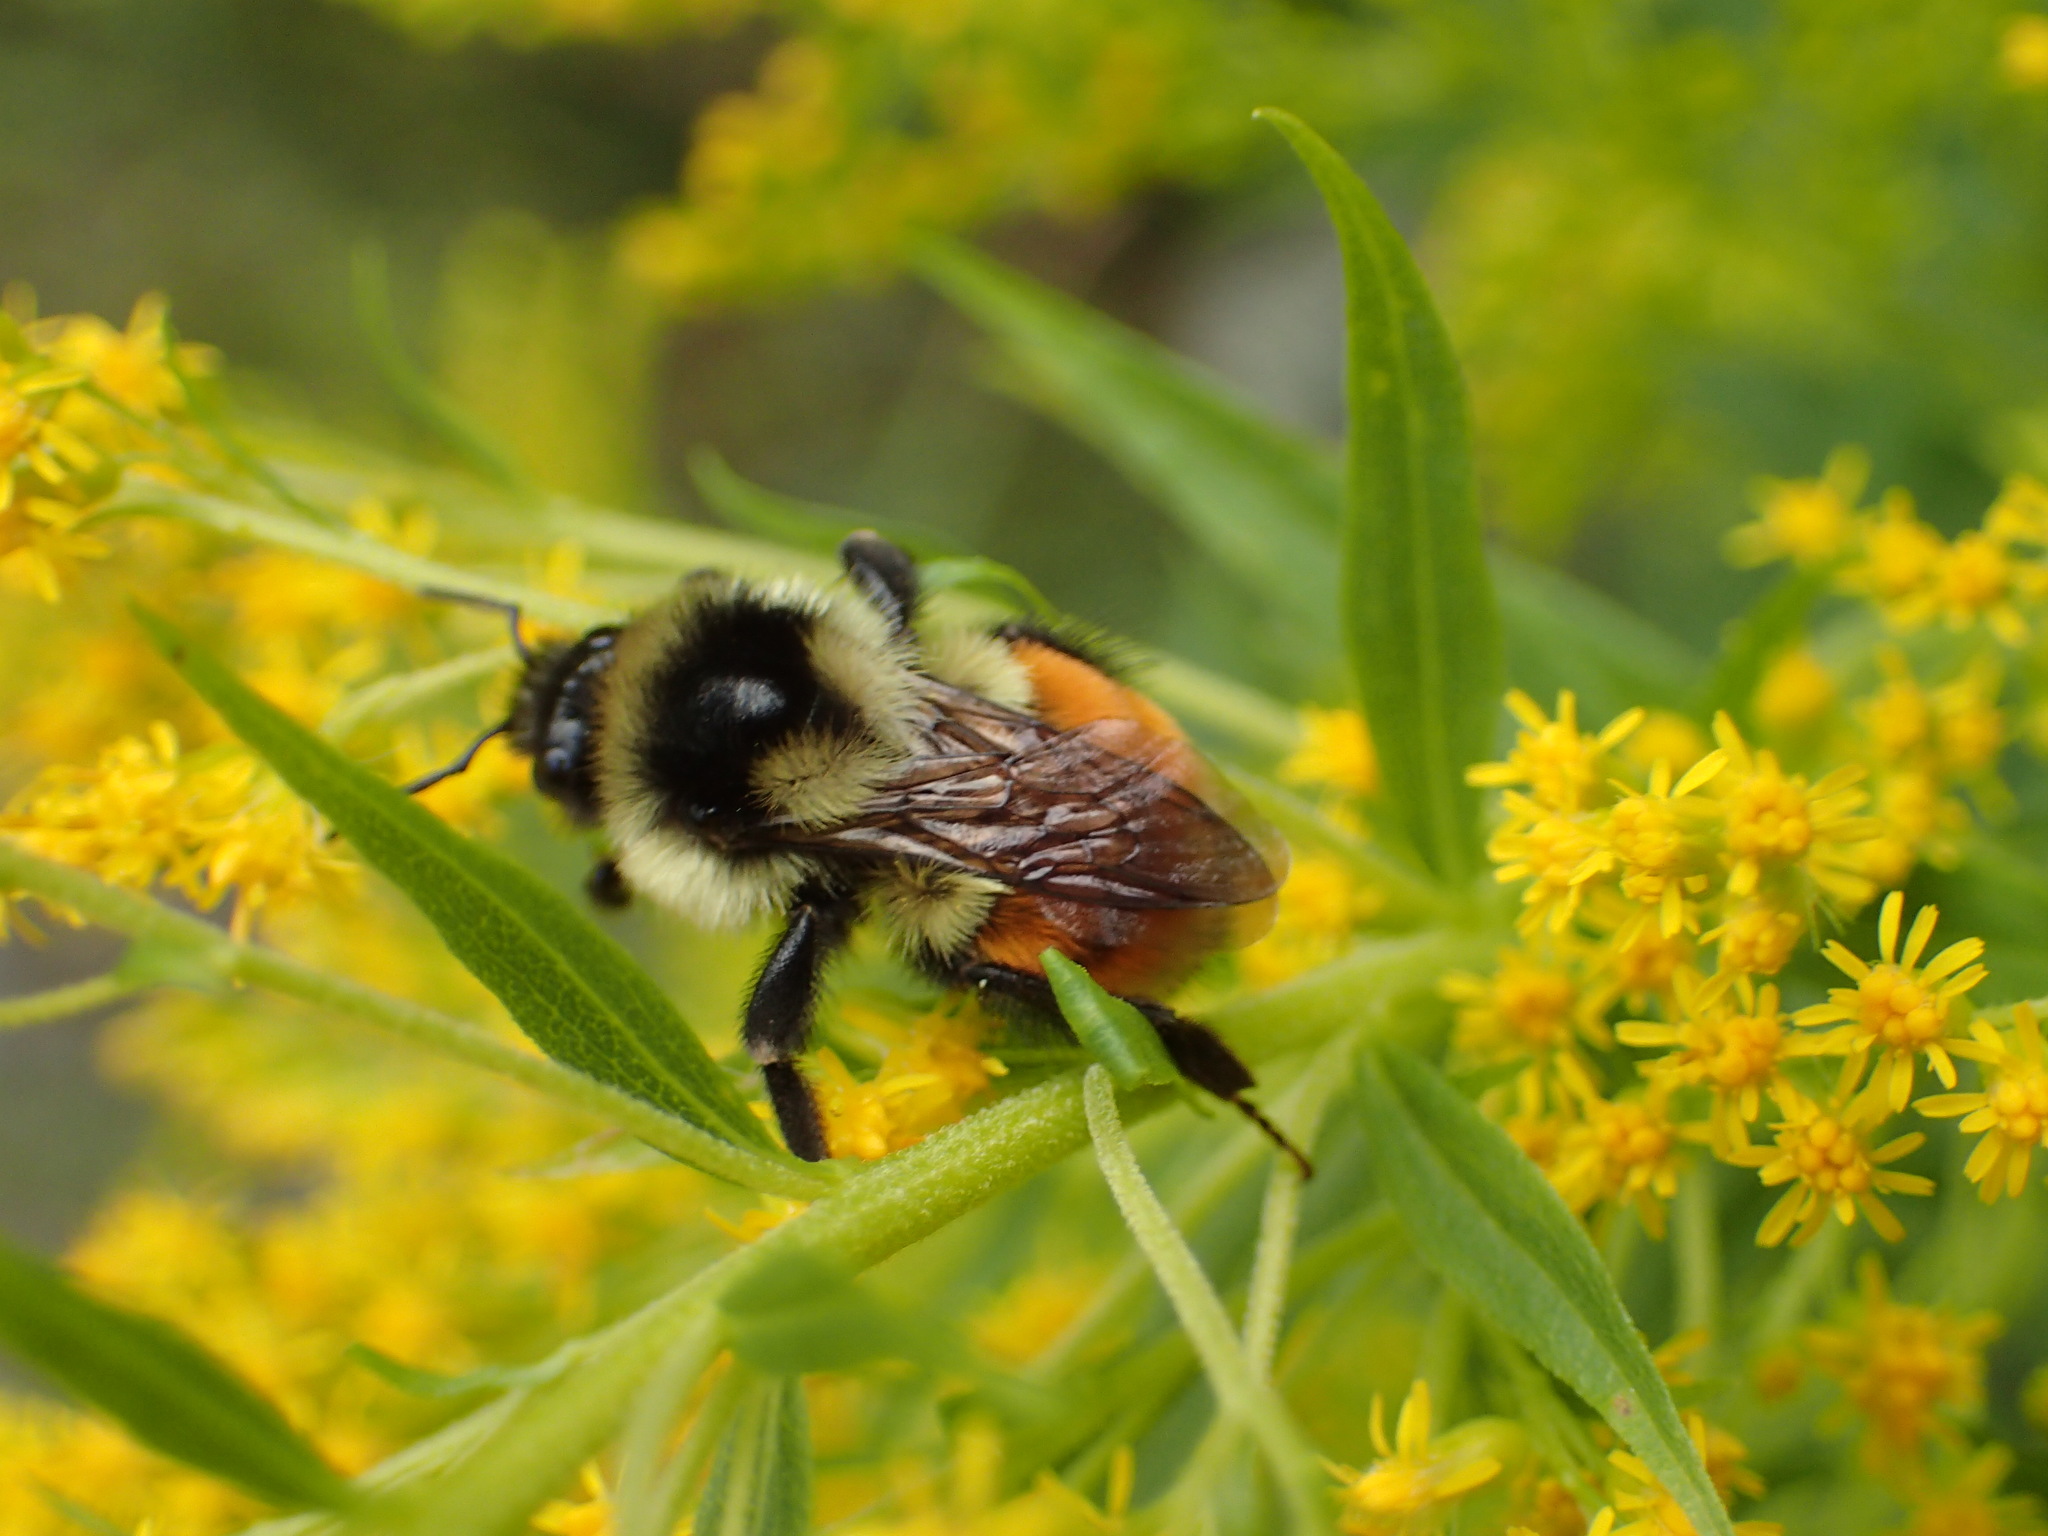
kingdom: Animalia
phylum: Arthropoda
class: Insecta
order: Hymenoptera
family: Apidae
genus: Bombus
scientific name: Bombus ternarius
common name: Tri-colored bumble bee
